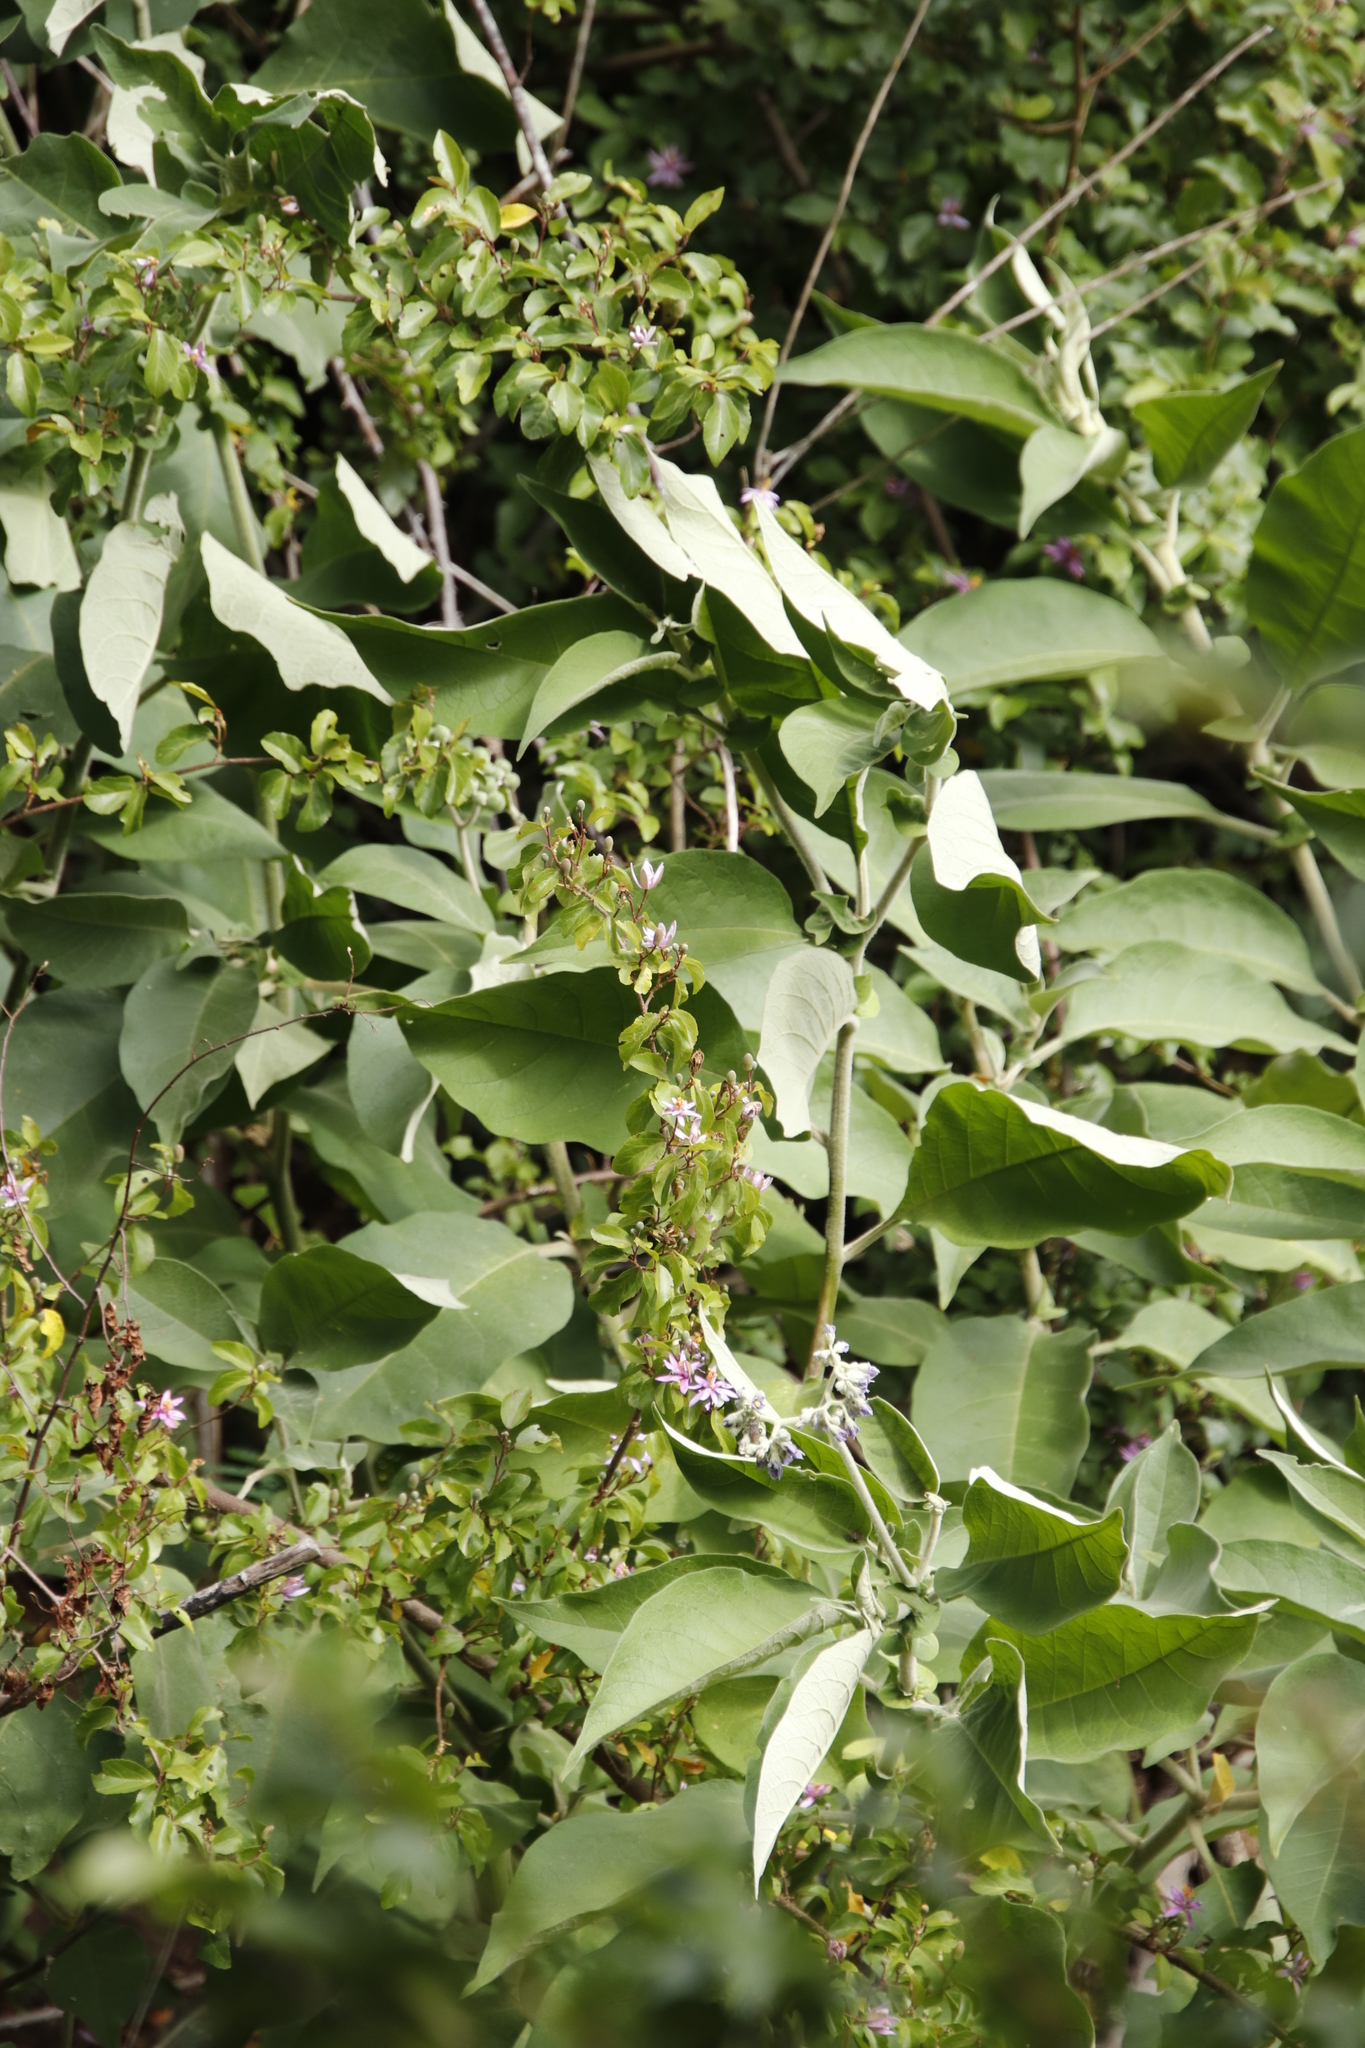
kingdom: Plantae
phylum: Tracheophyta
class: Magnoliopsida
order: Solanales
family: Solanaceae
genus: Solanum
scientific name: Solanum mauritianum
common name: Earleaf nightshade
